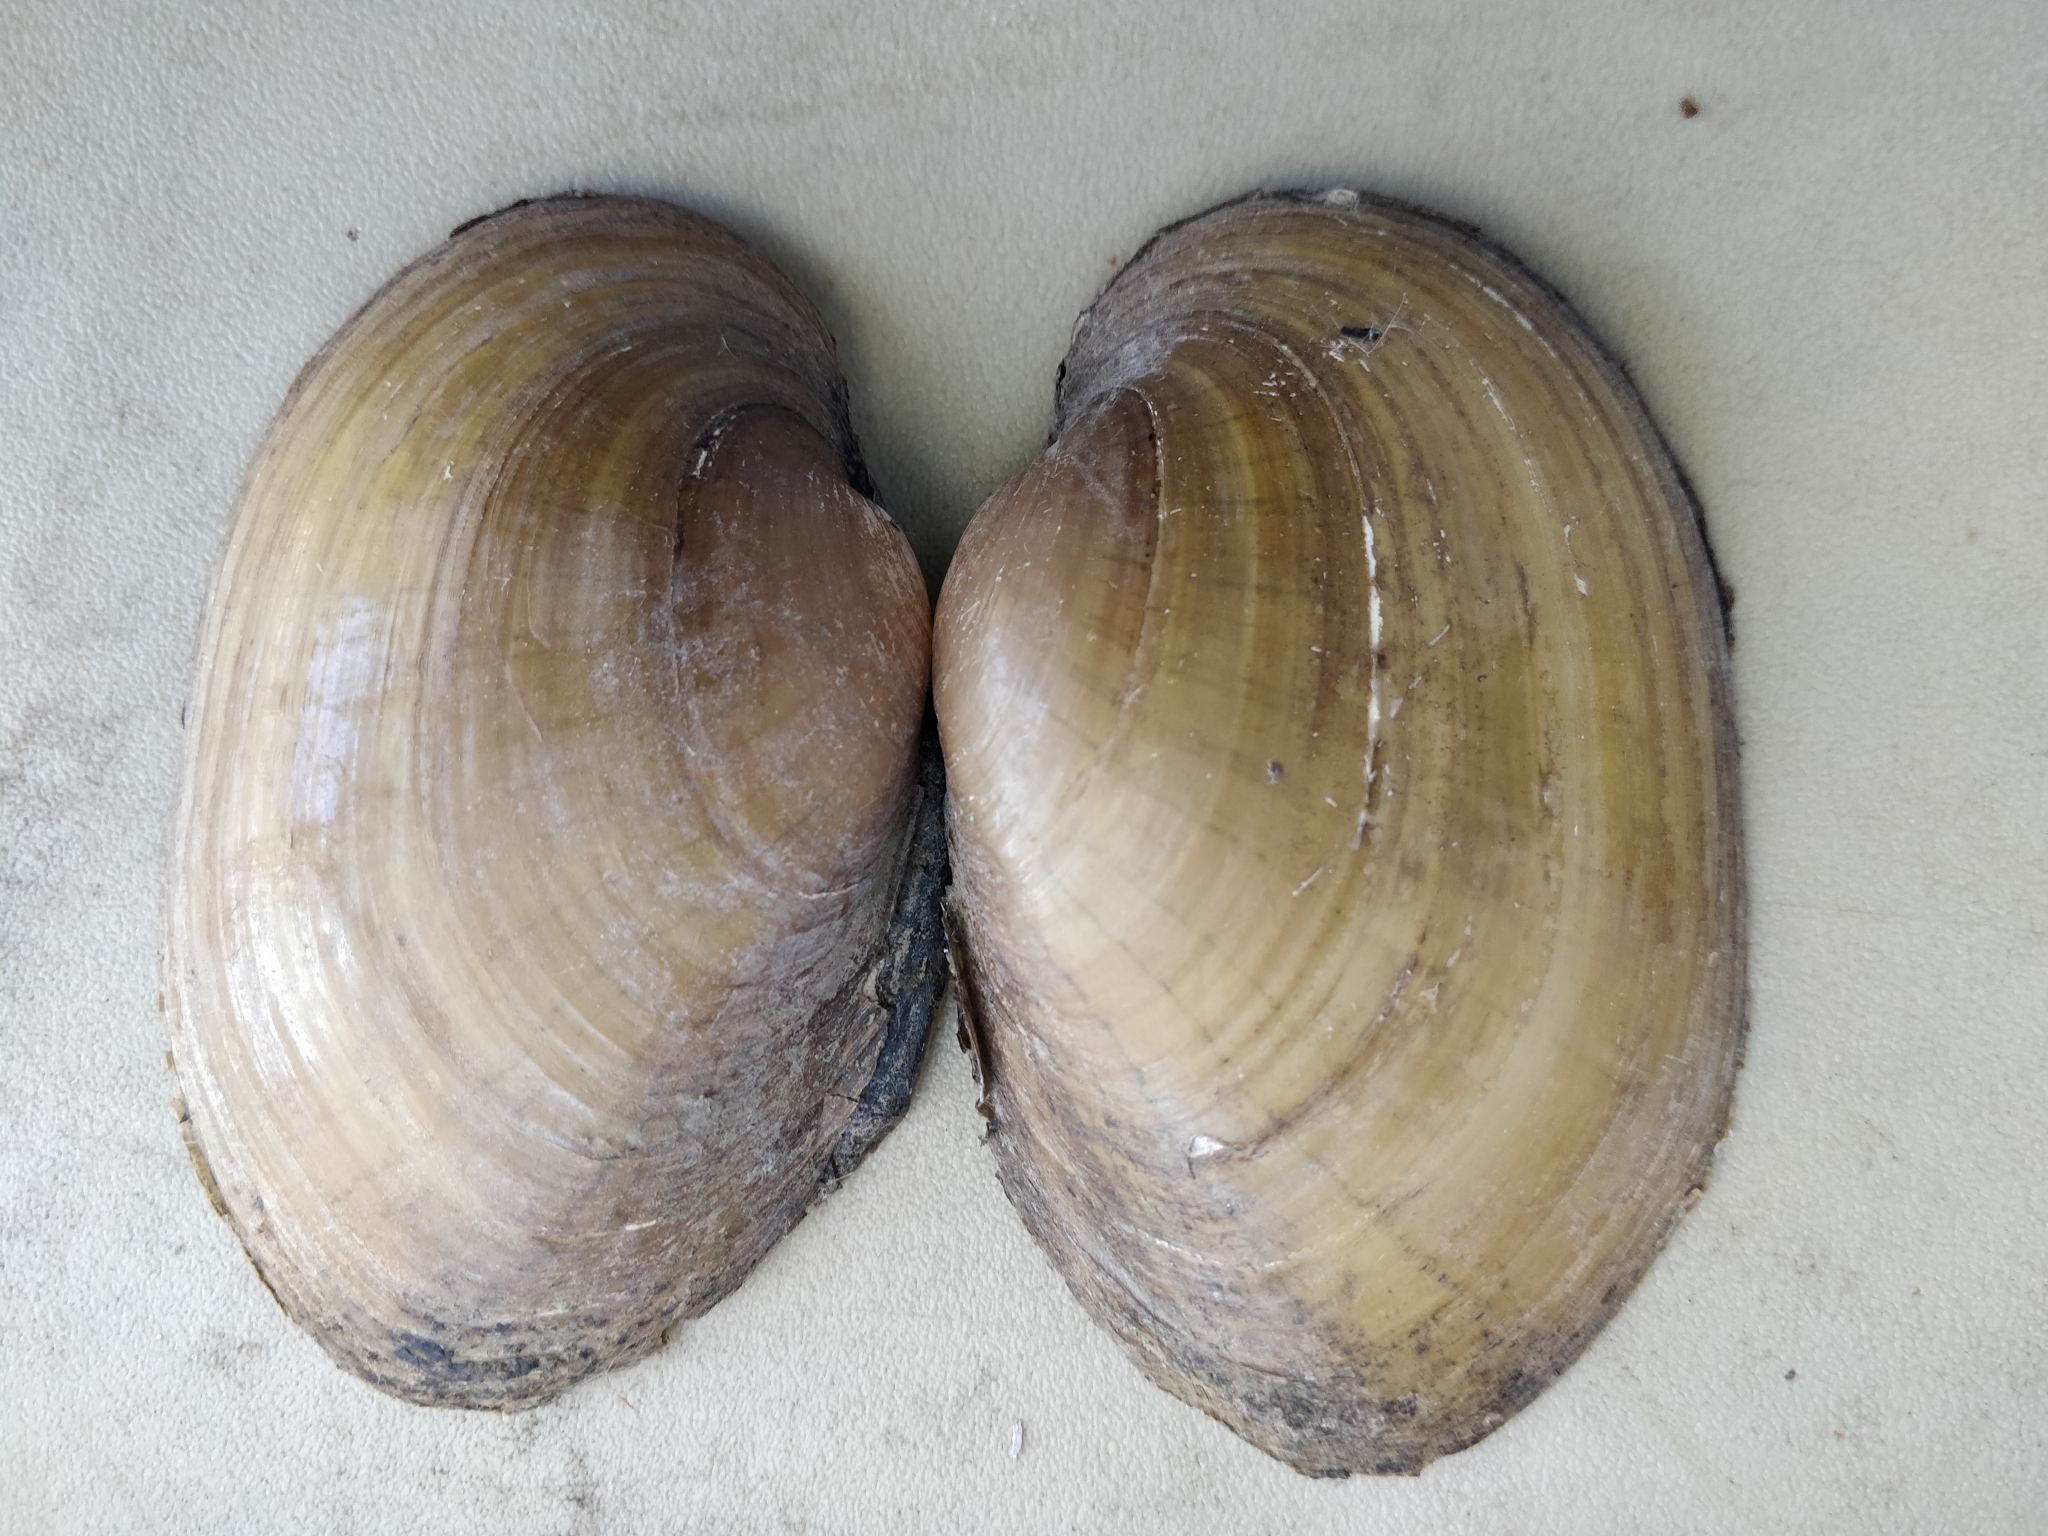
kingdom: Animalia
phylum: Mollusca
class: Bivalvia
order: Unionida
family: Unionidae
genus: Lampsilis
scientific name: Lampsilis cardium
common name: Plain pocketbook
